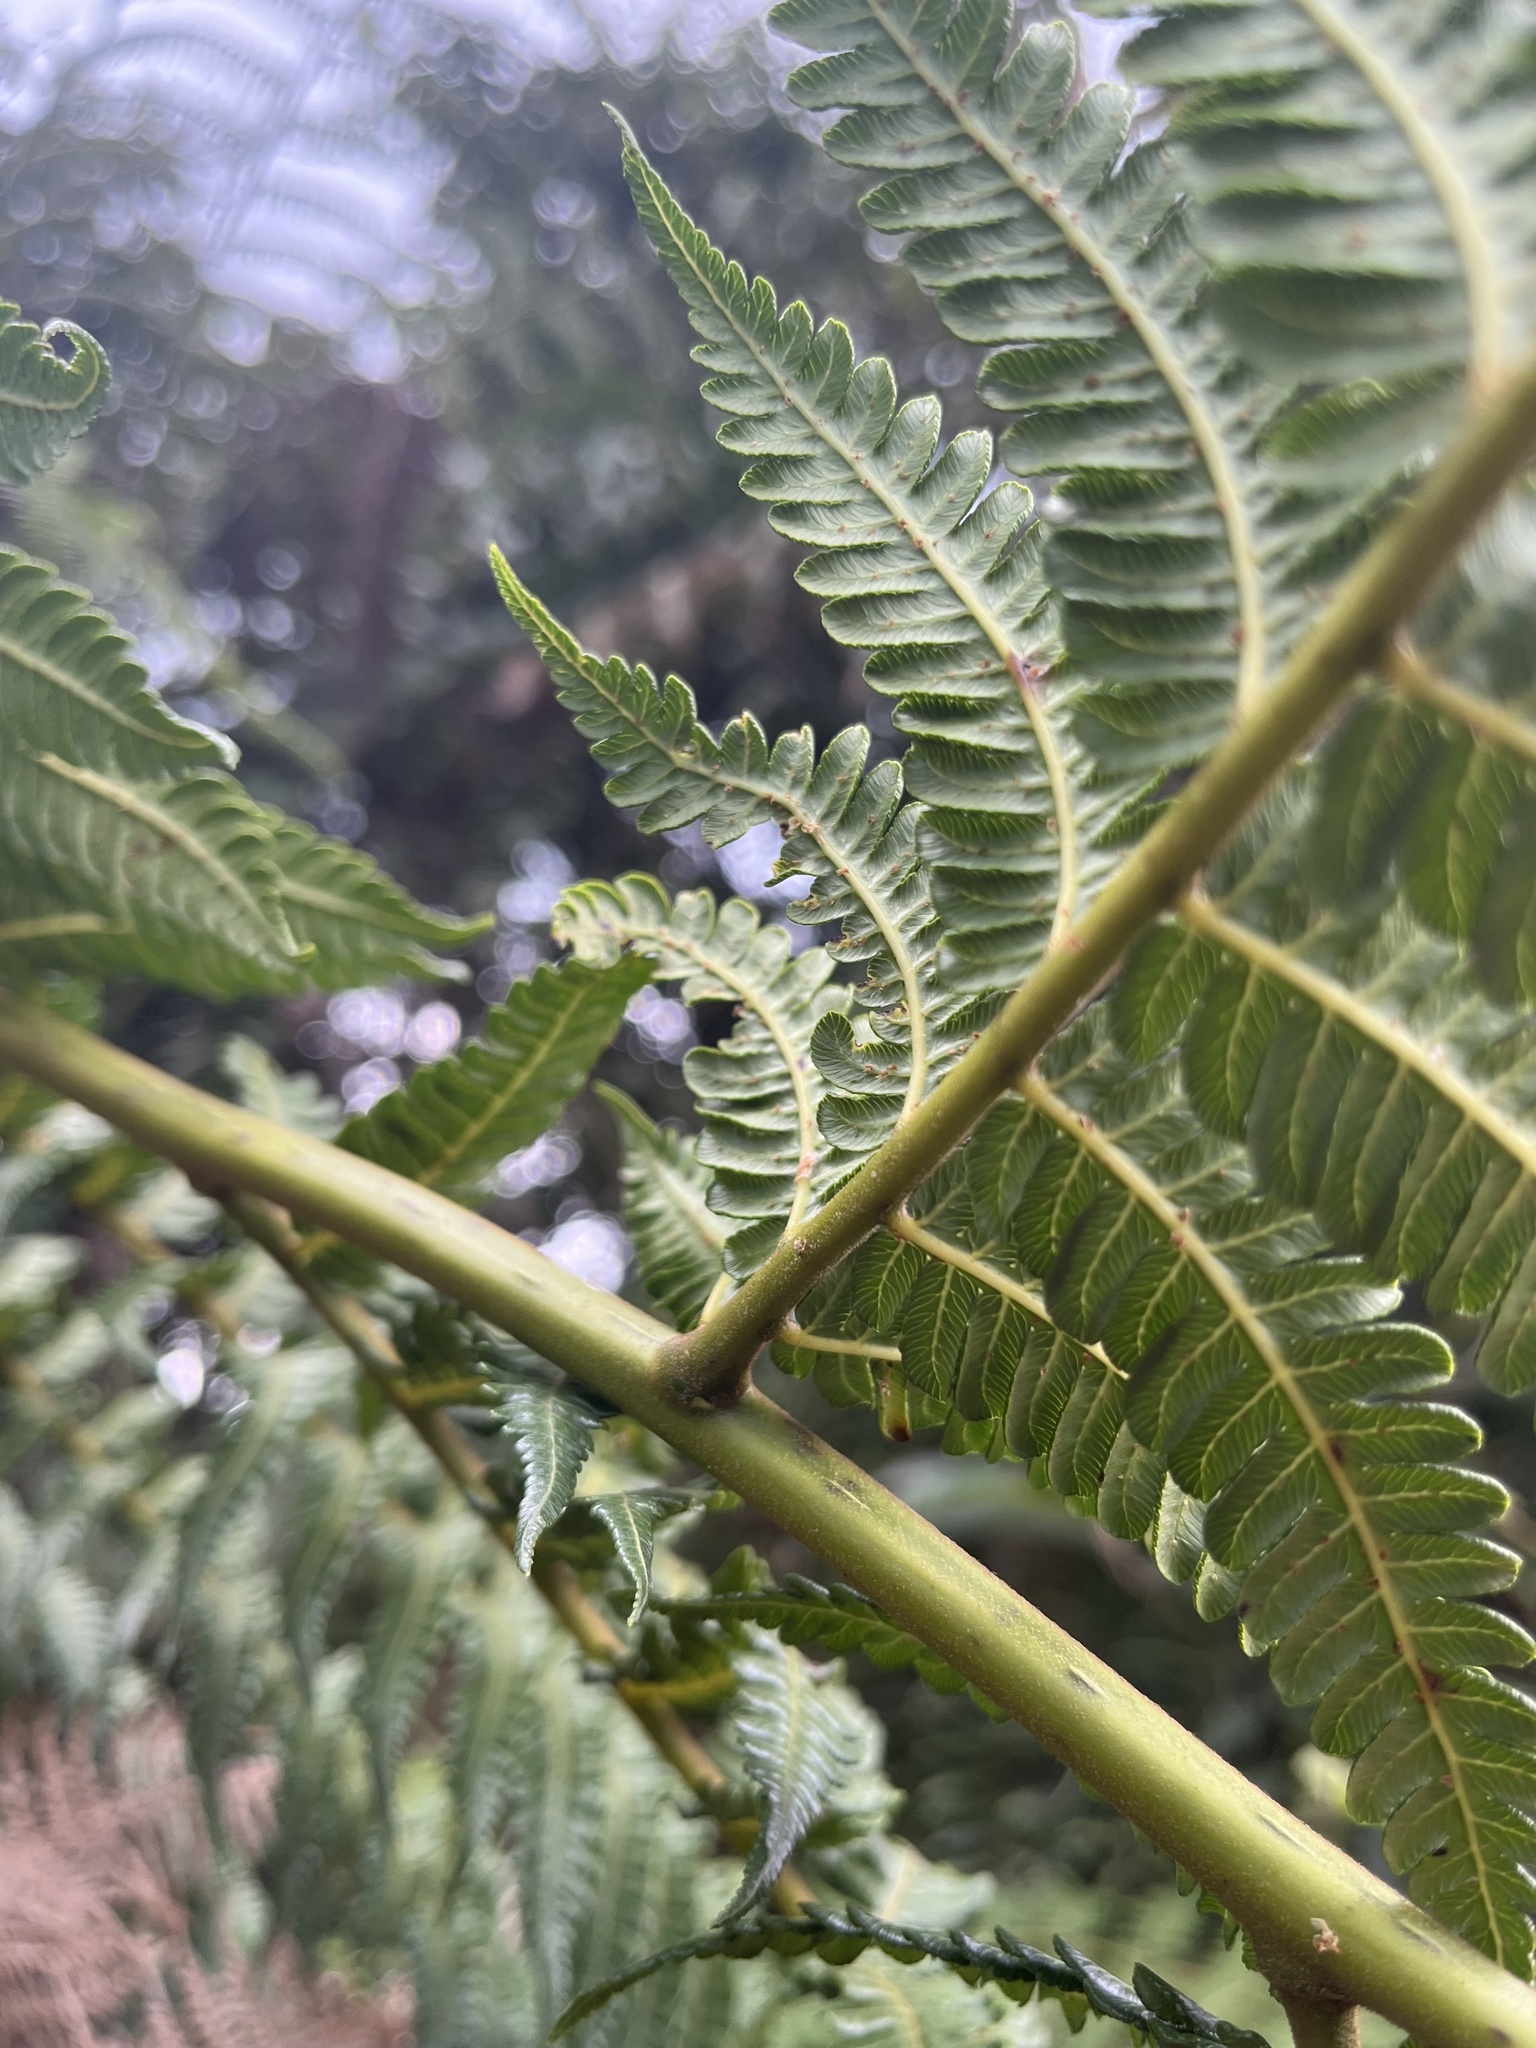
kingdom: Plantae
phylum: Tracheophyta
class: Polypodiopsida
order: Cyatheales
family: Cyatheaceae
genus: Cyathea
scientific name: Cyathea pallescens
